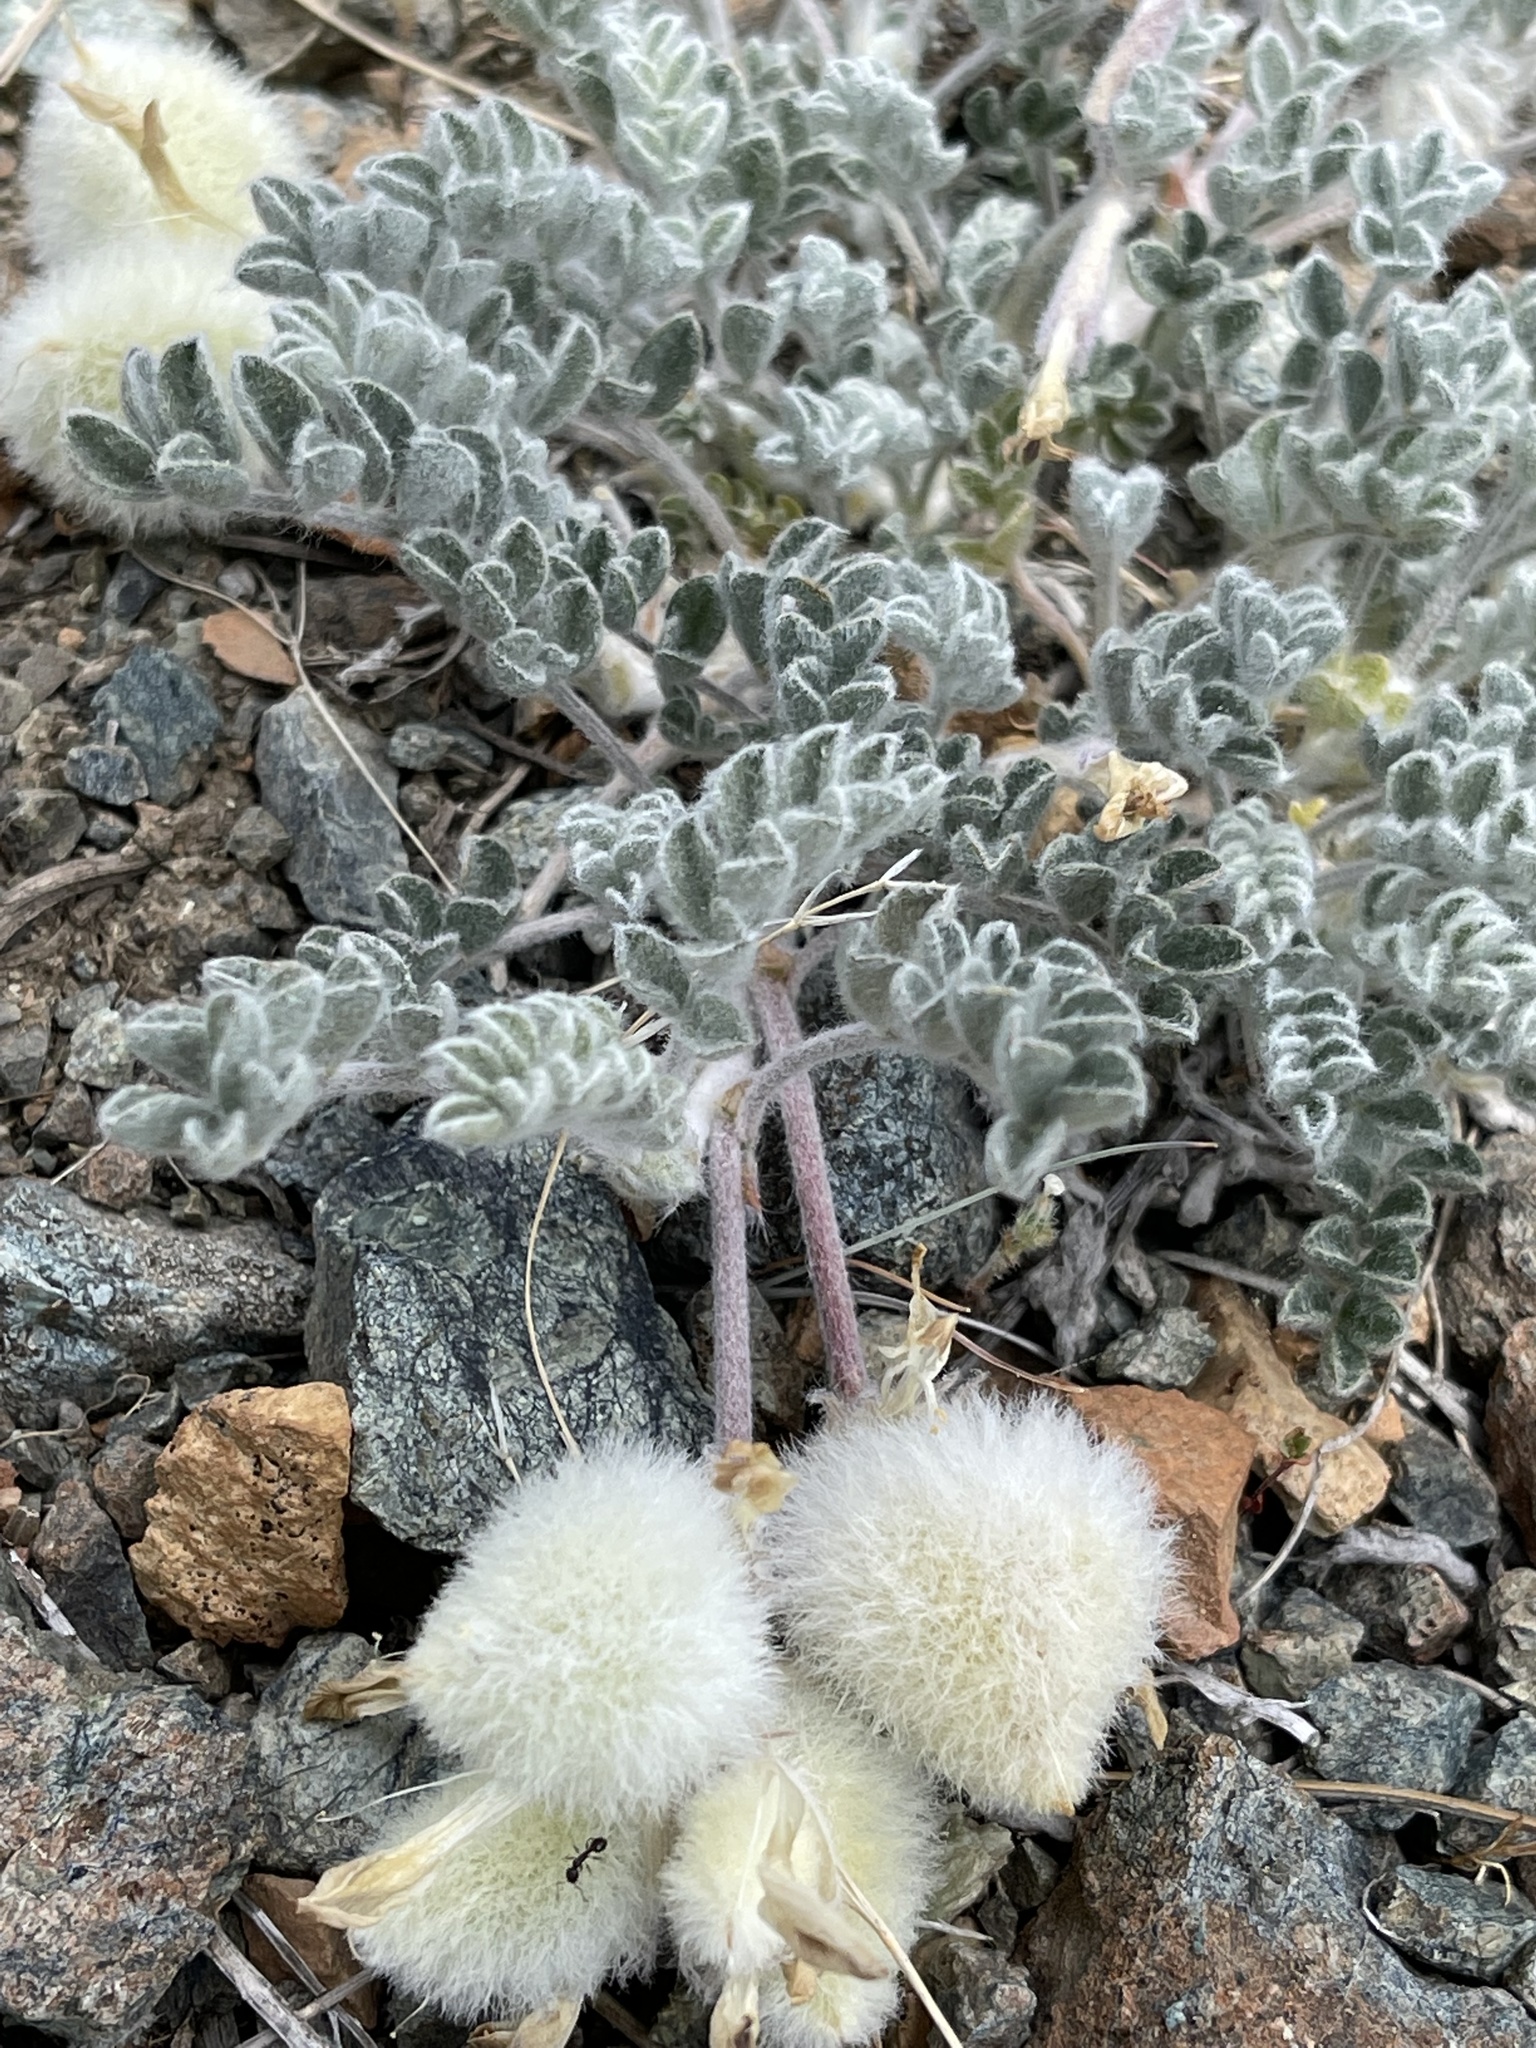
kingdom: Plantae
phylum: Tracheophyta
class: Magnoliopsida
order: Fabales
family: Fabaceae
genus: Astragalus
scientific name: Astragalus purshii
